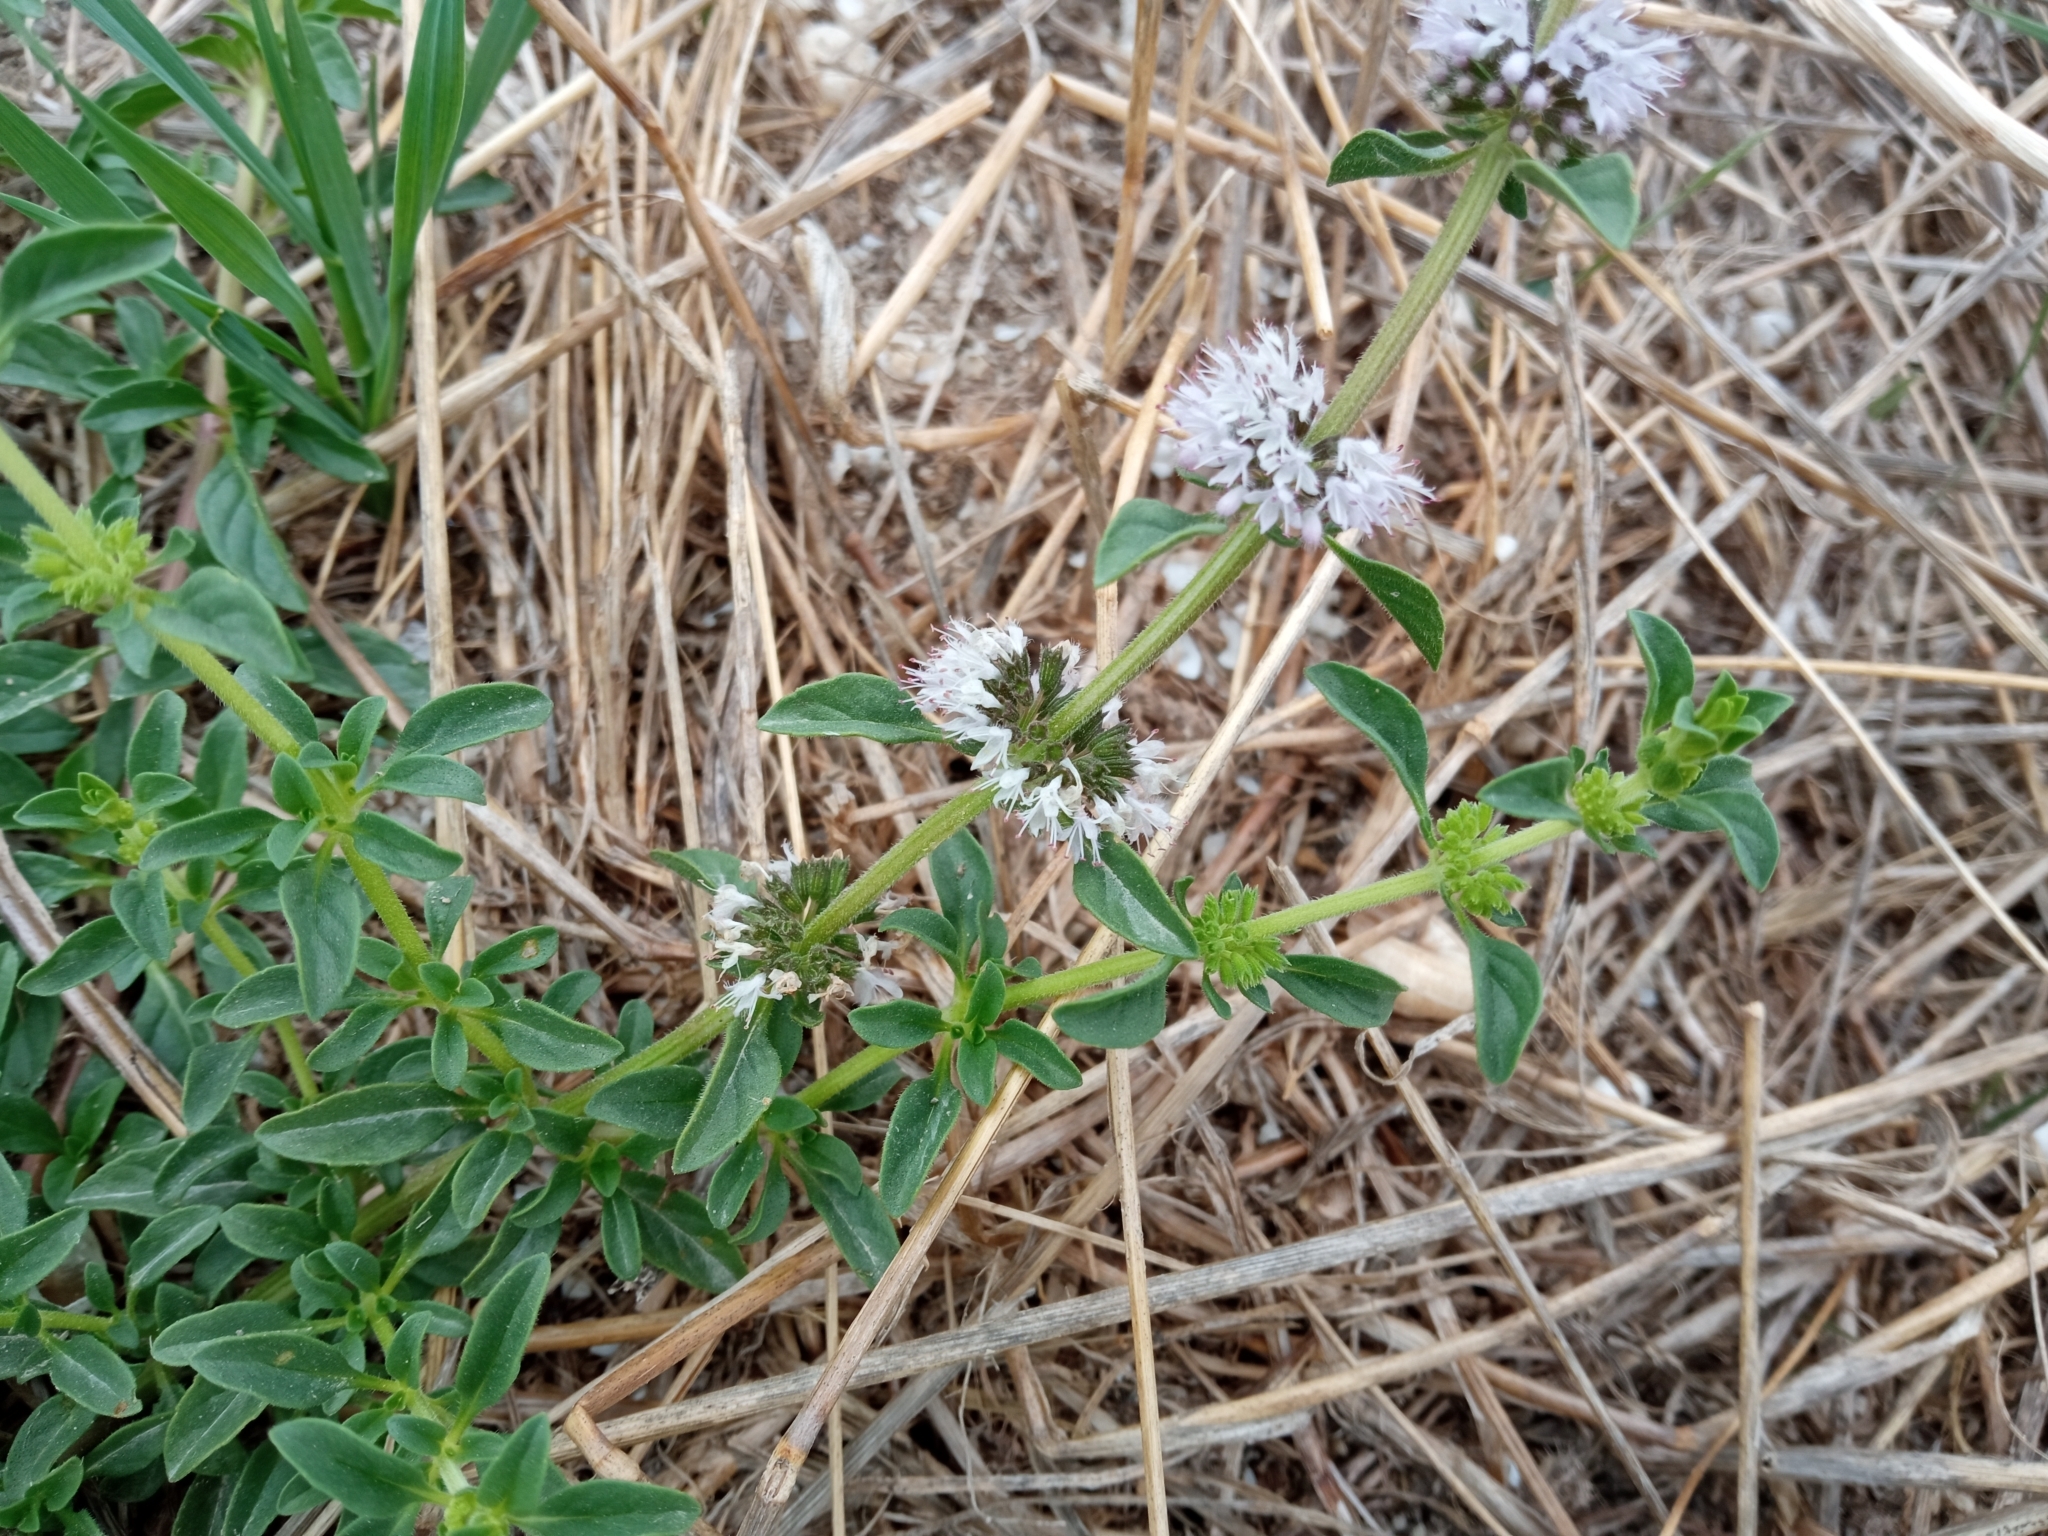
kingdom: Plantae
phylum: Tracheophyta
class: Magnoliopsida
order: Lamiales
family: Lamiaceae
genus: Mentha
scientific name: Mentha pulegium
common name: Pennyroyal
